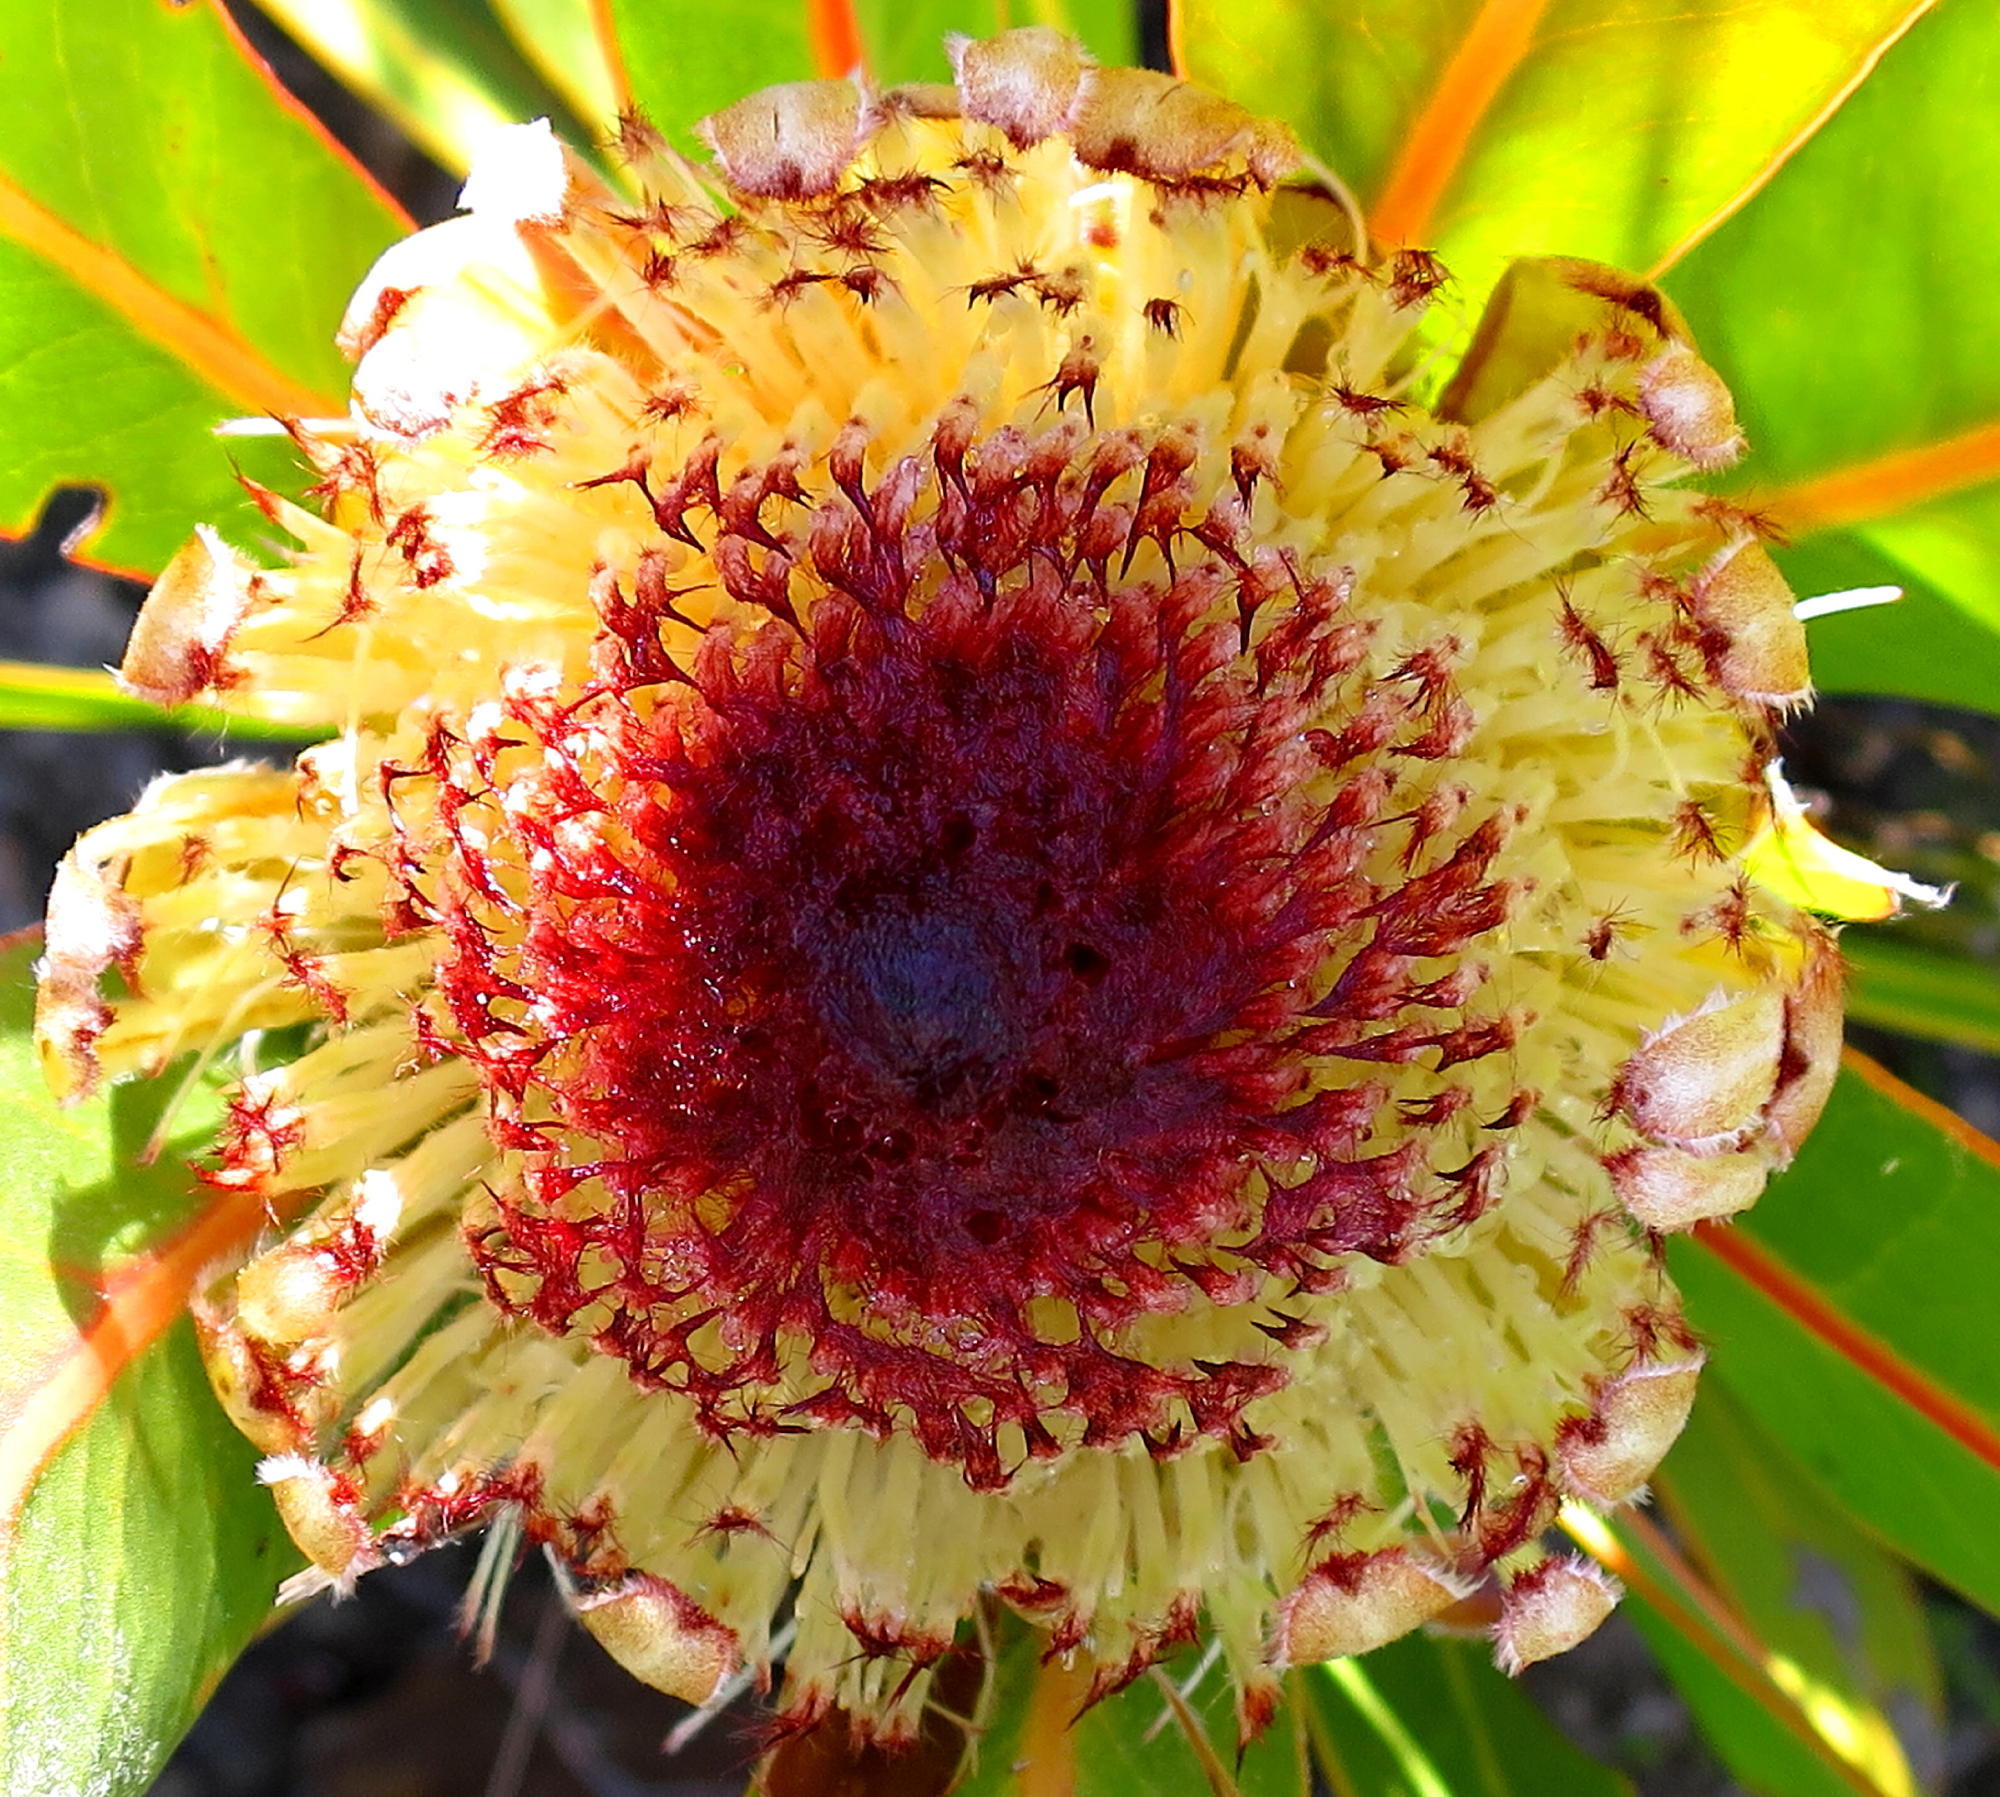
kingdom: Plantae
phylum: Tracheophyta
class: Magnoliopsida
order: Proteales
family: Proteaceae
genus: Protea
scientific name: Protea lorifolia
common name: Strap-leaved protea
